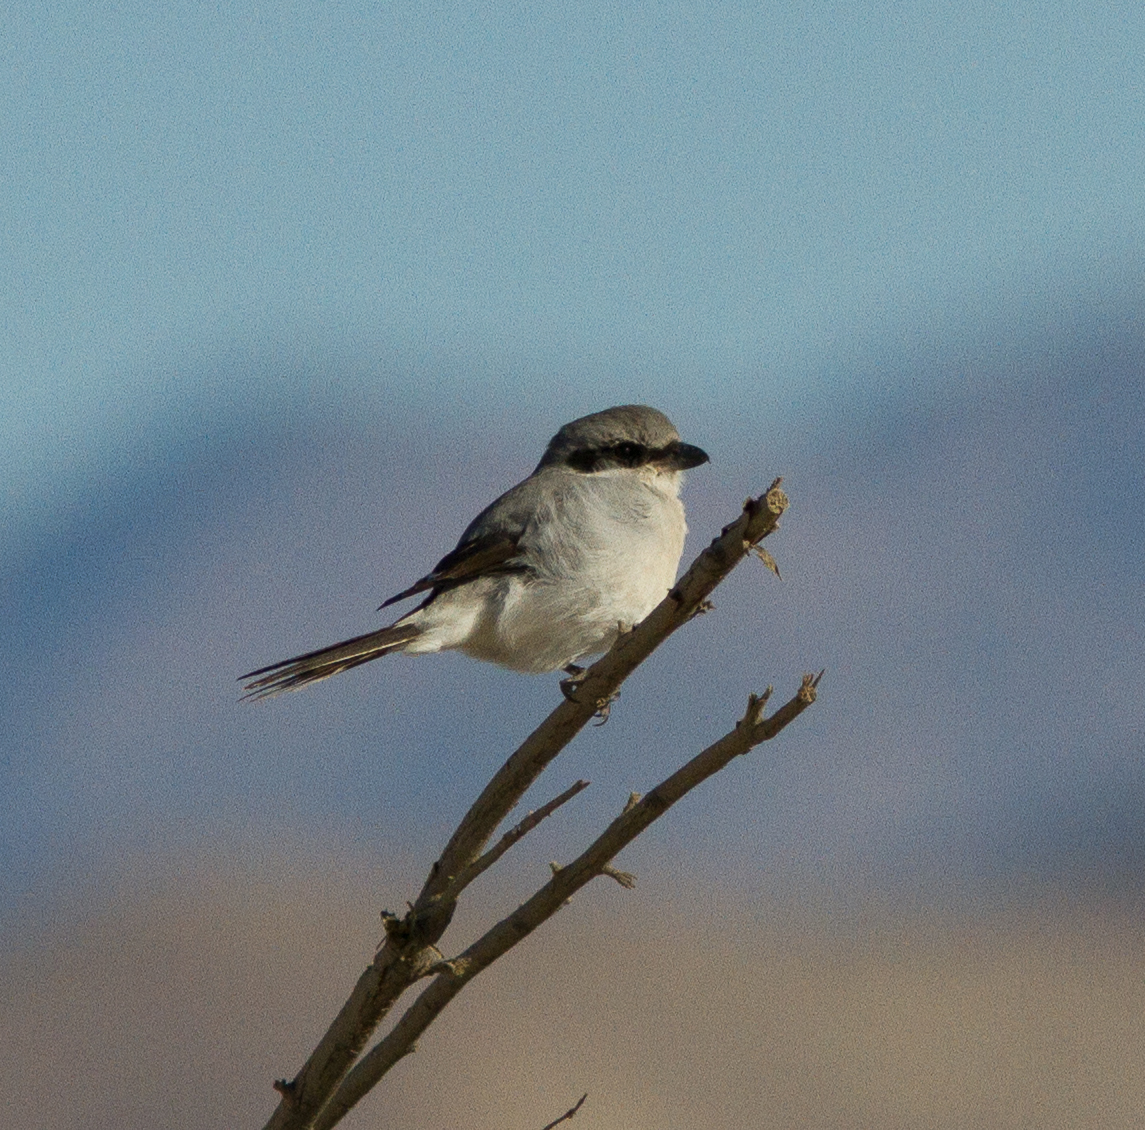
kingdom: Animalia
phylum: Chordata
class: Aves
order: Passeriformes
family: Laniidae
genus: Lanius
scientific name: Lanius ludovicianus
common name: Loggerhead shrike
